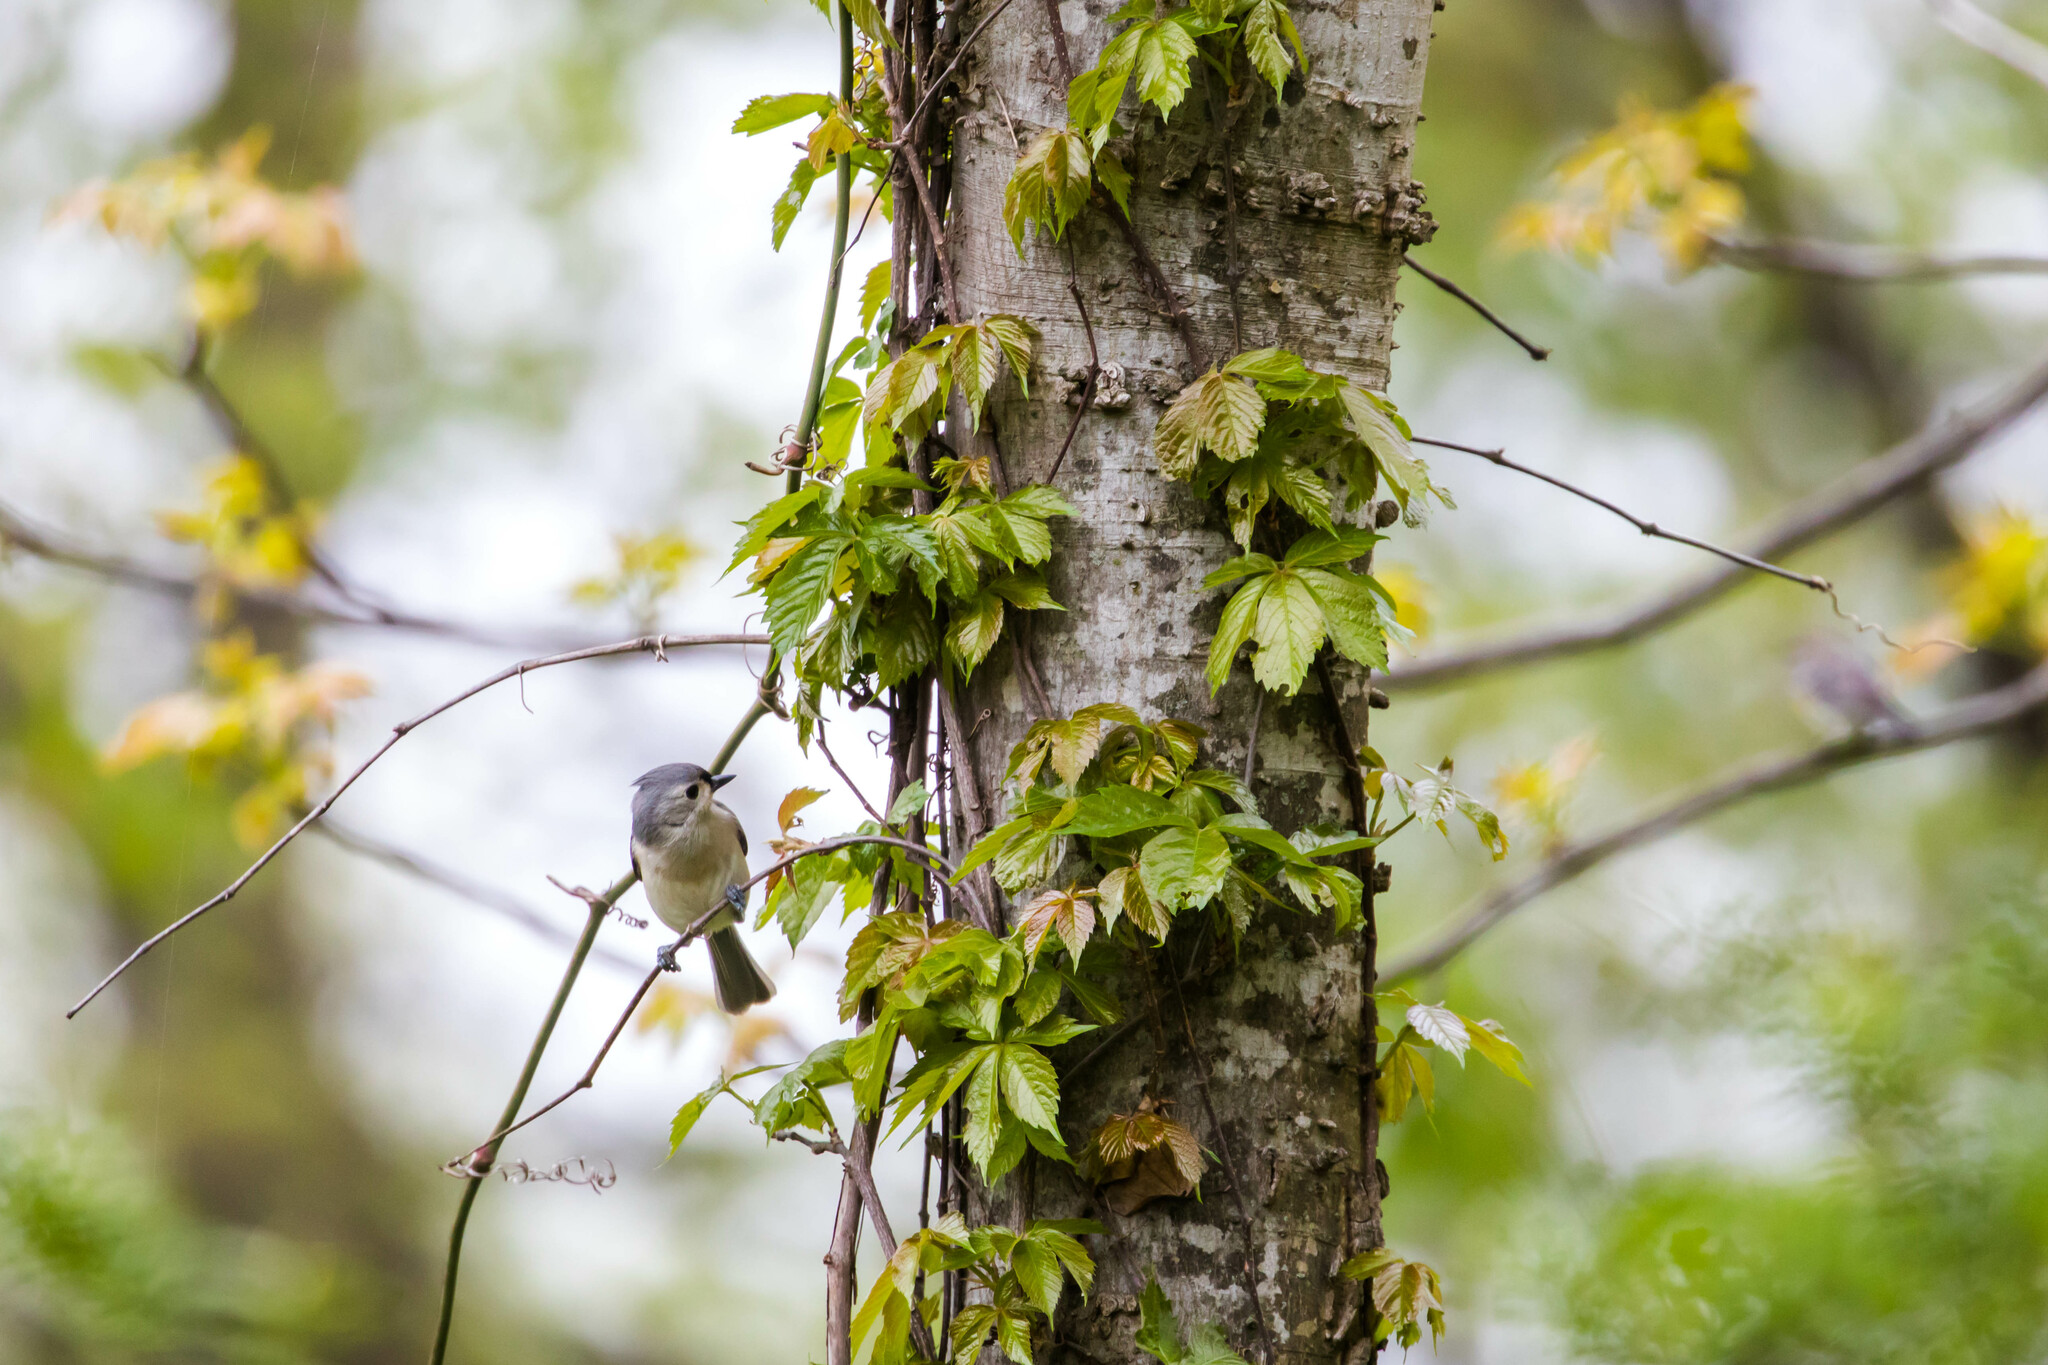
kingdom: Animalia
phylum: Chordata
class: Aves
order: Passeriformes
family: Paridae
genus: Baeolophus
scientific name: Baeolophus bicolor
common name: Tufted titmouse
